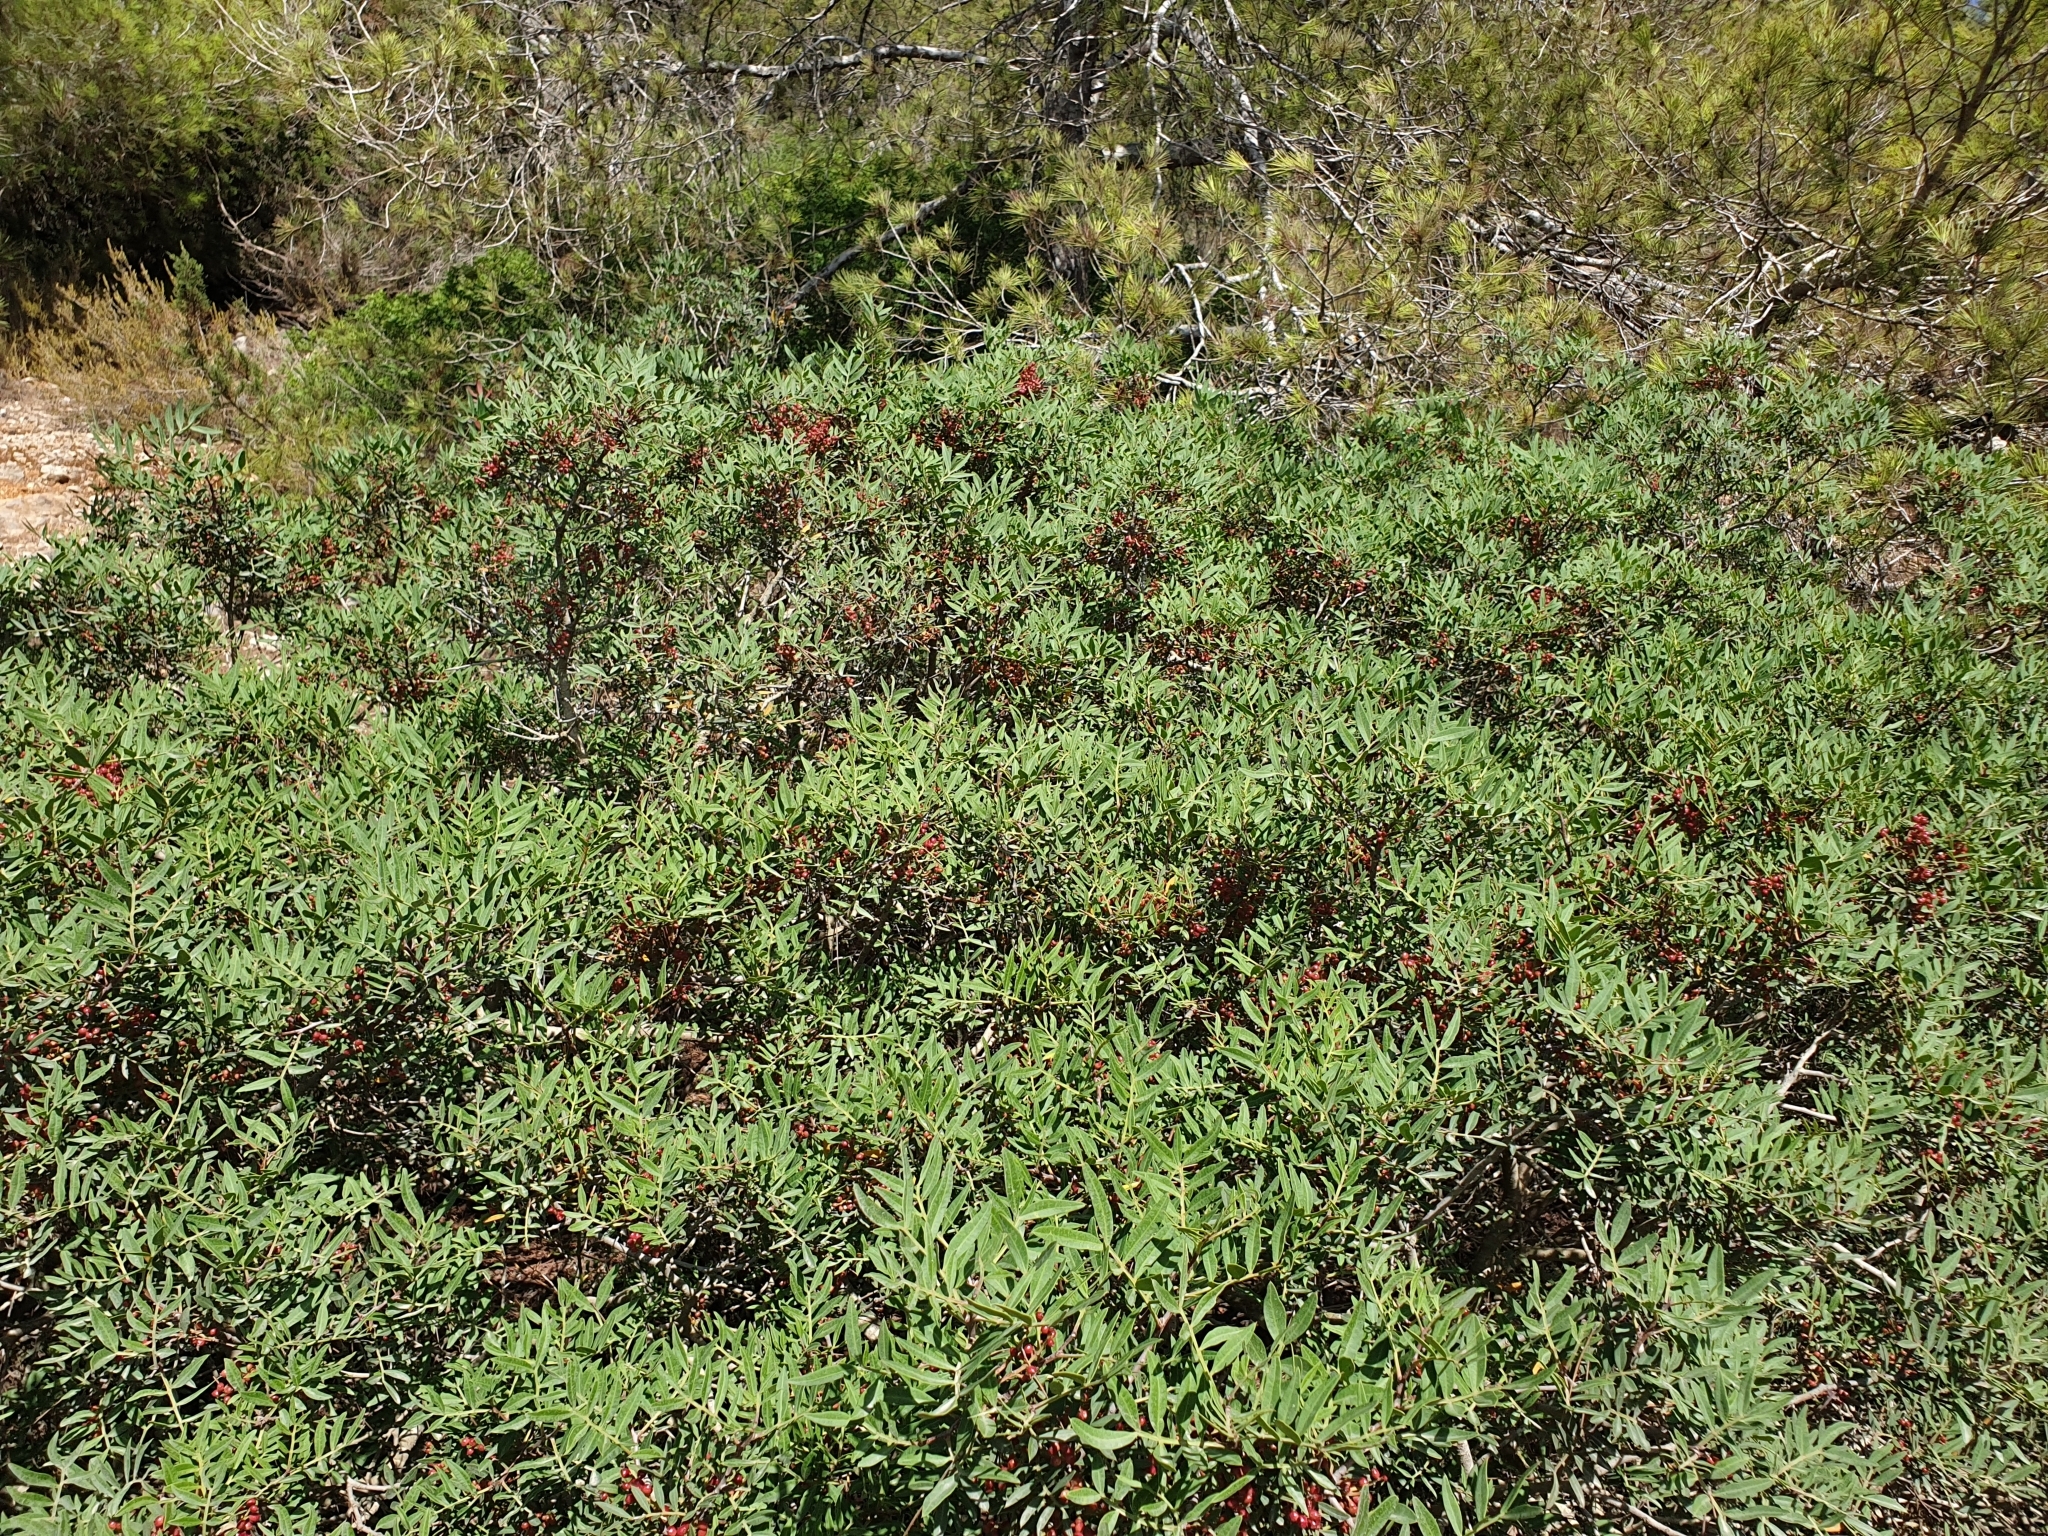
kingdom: Plantae
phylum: Tracheophyta
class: Magnoliopsida
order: Sapindales
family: Anacardiaceae
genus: Pistacia
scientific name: Pistacia lentiscus
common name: Lentisk
